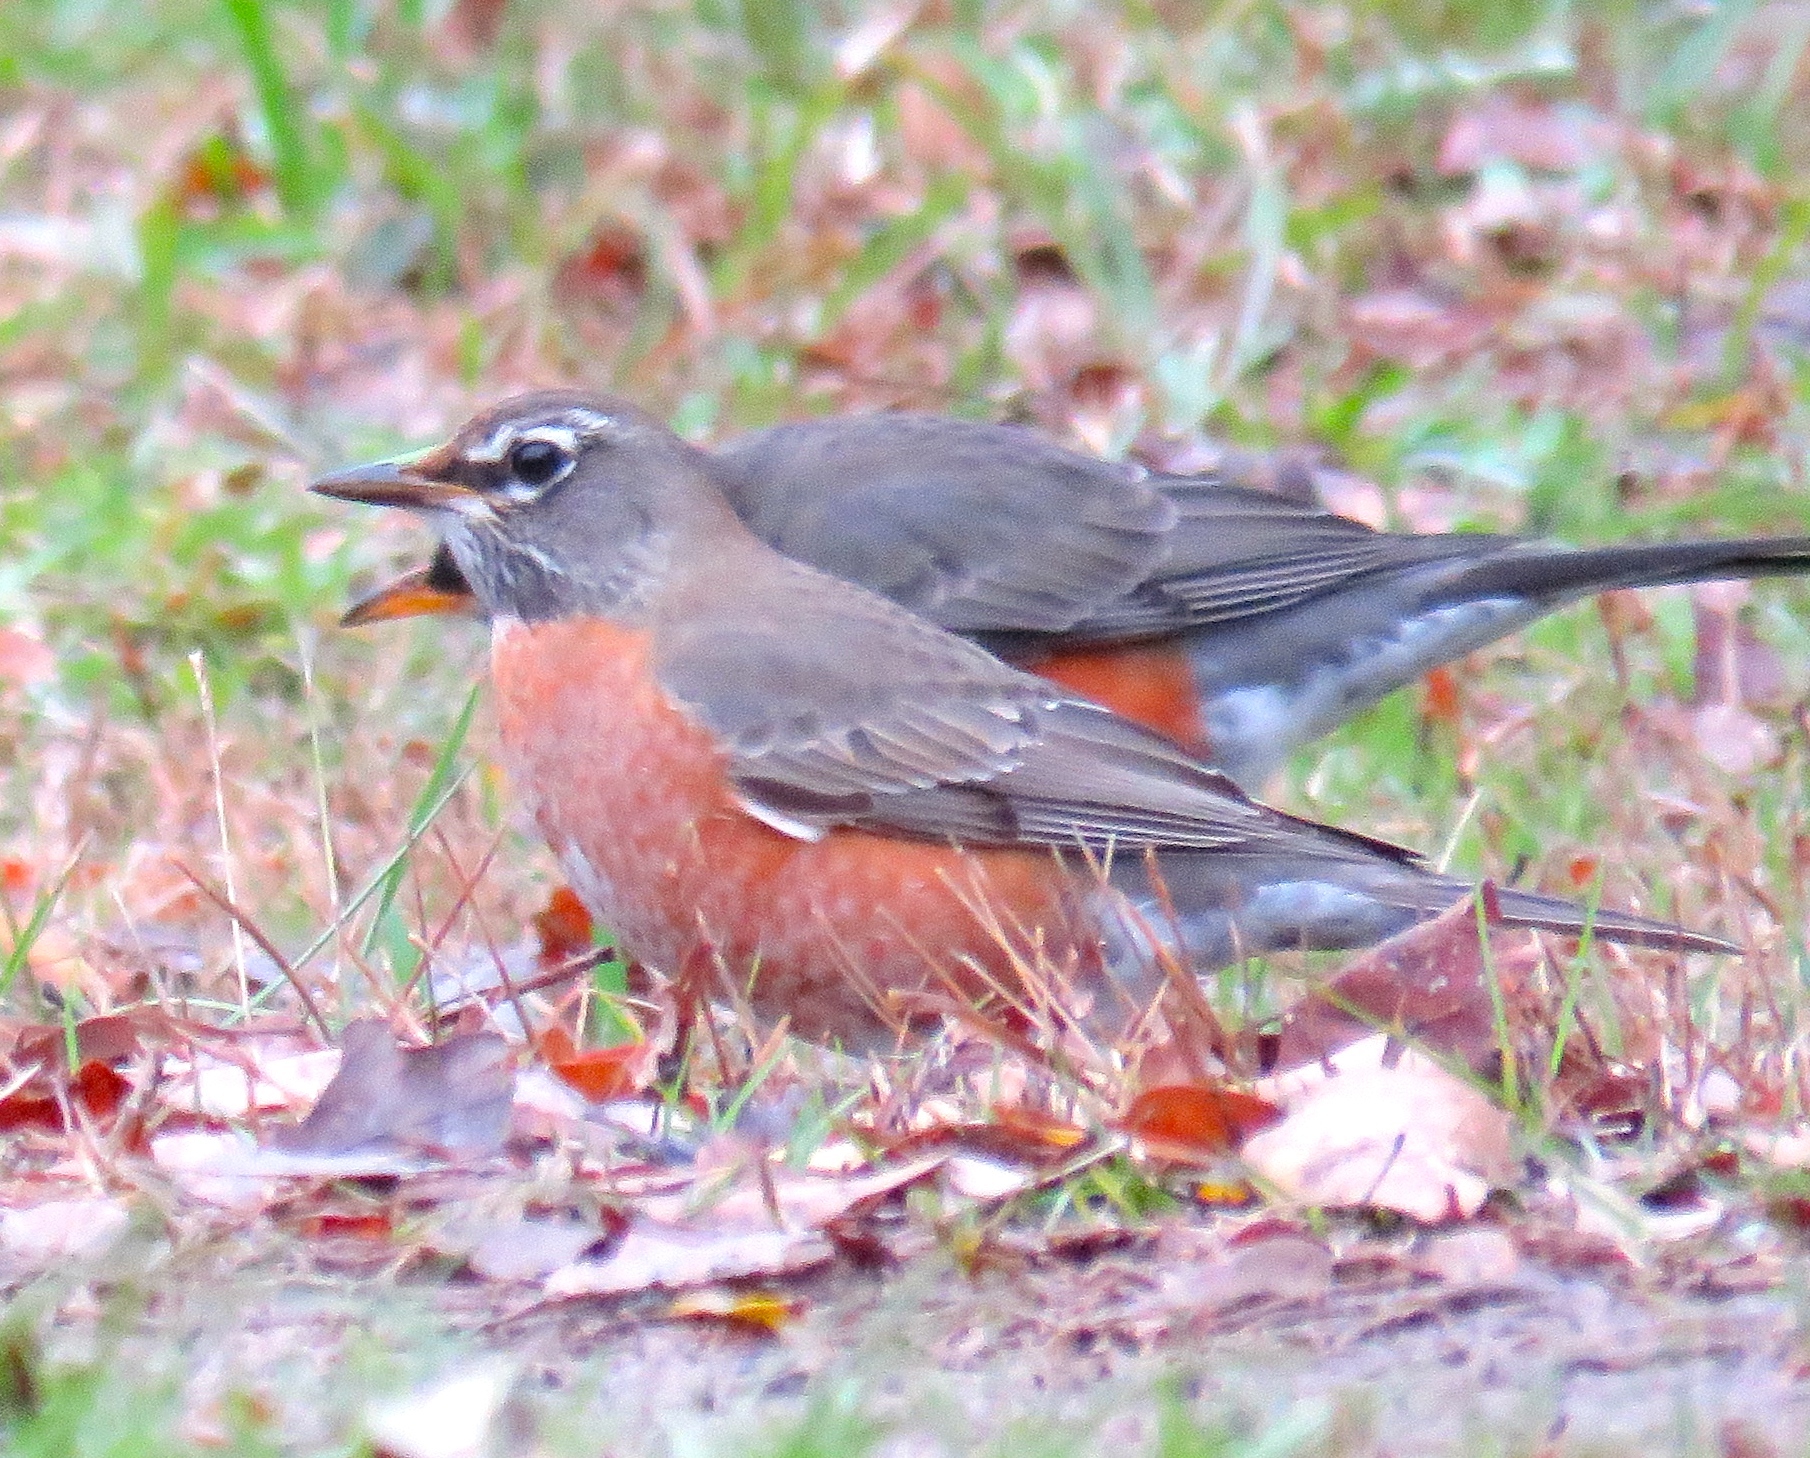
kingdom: Animalia
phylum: Chordata
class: Aves
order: Passeriformes
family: Turdidae
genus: Turdus
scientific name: Turdus migratorius
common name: American robin
